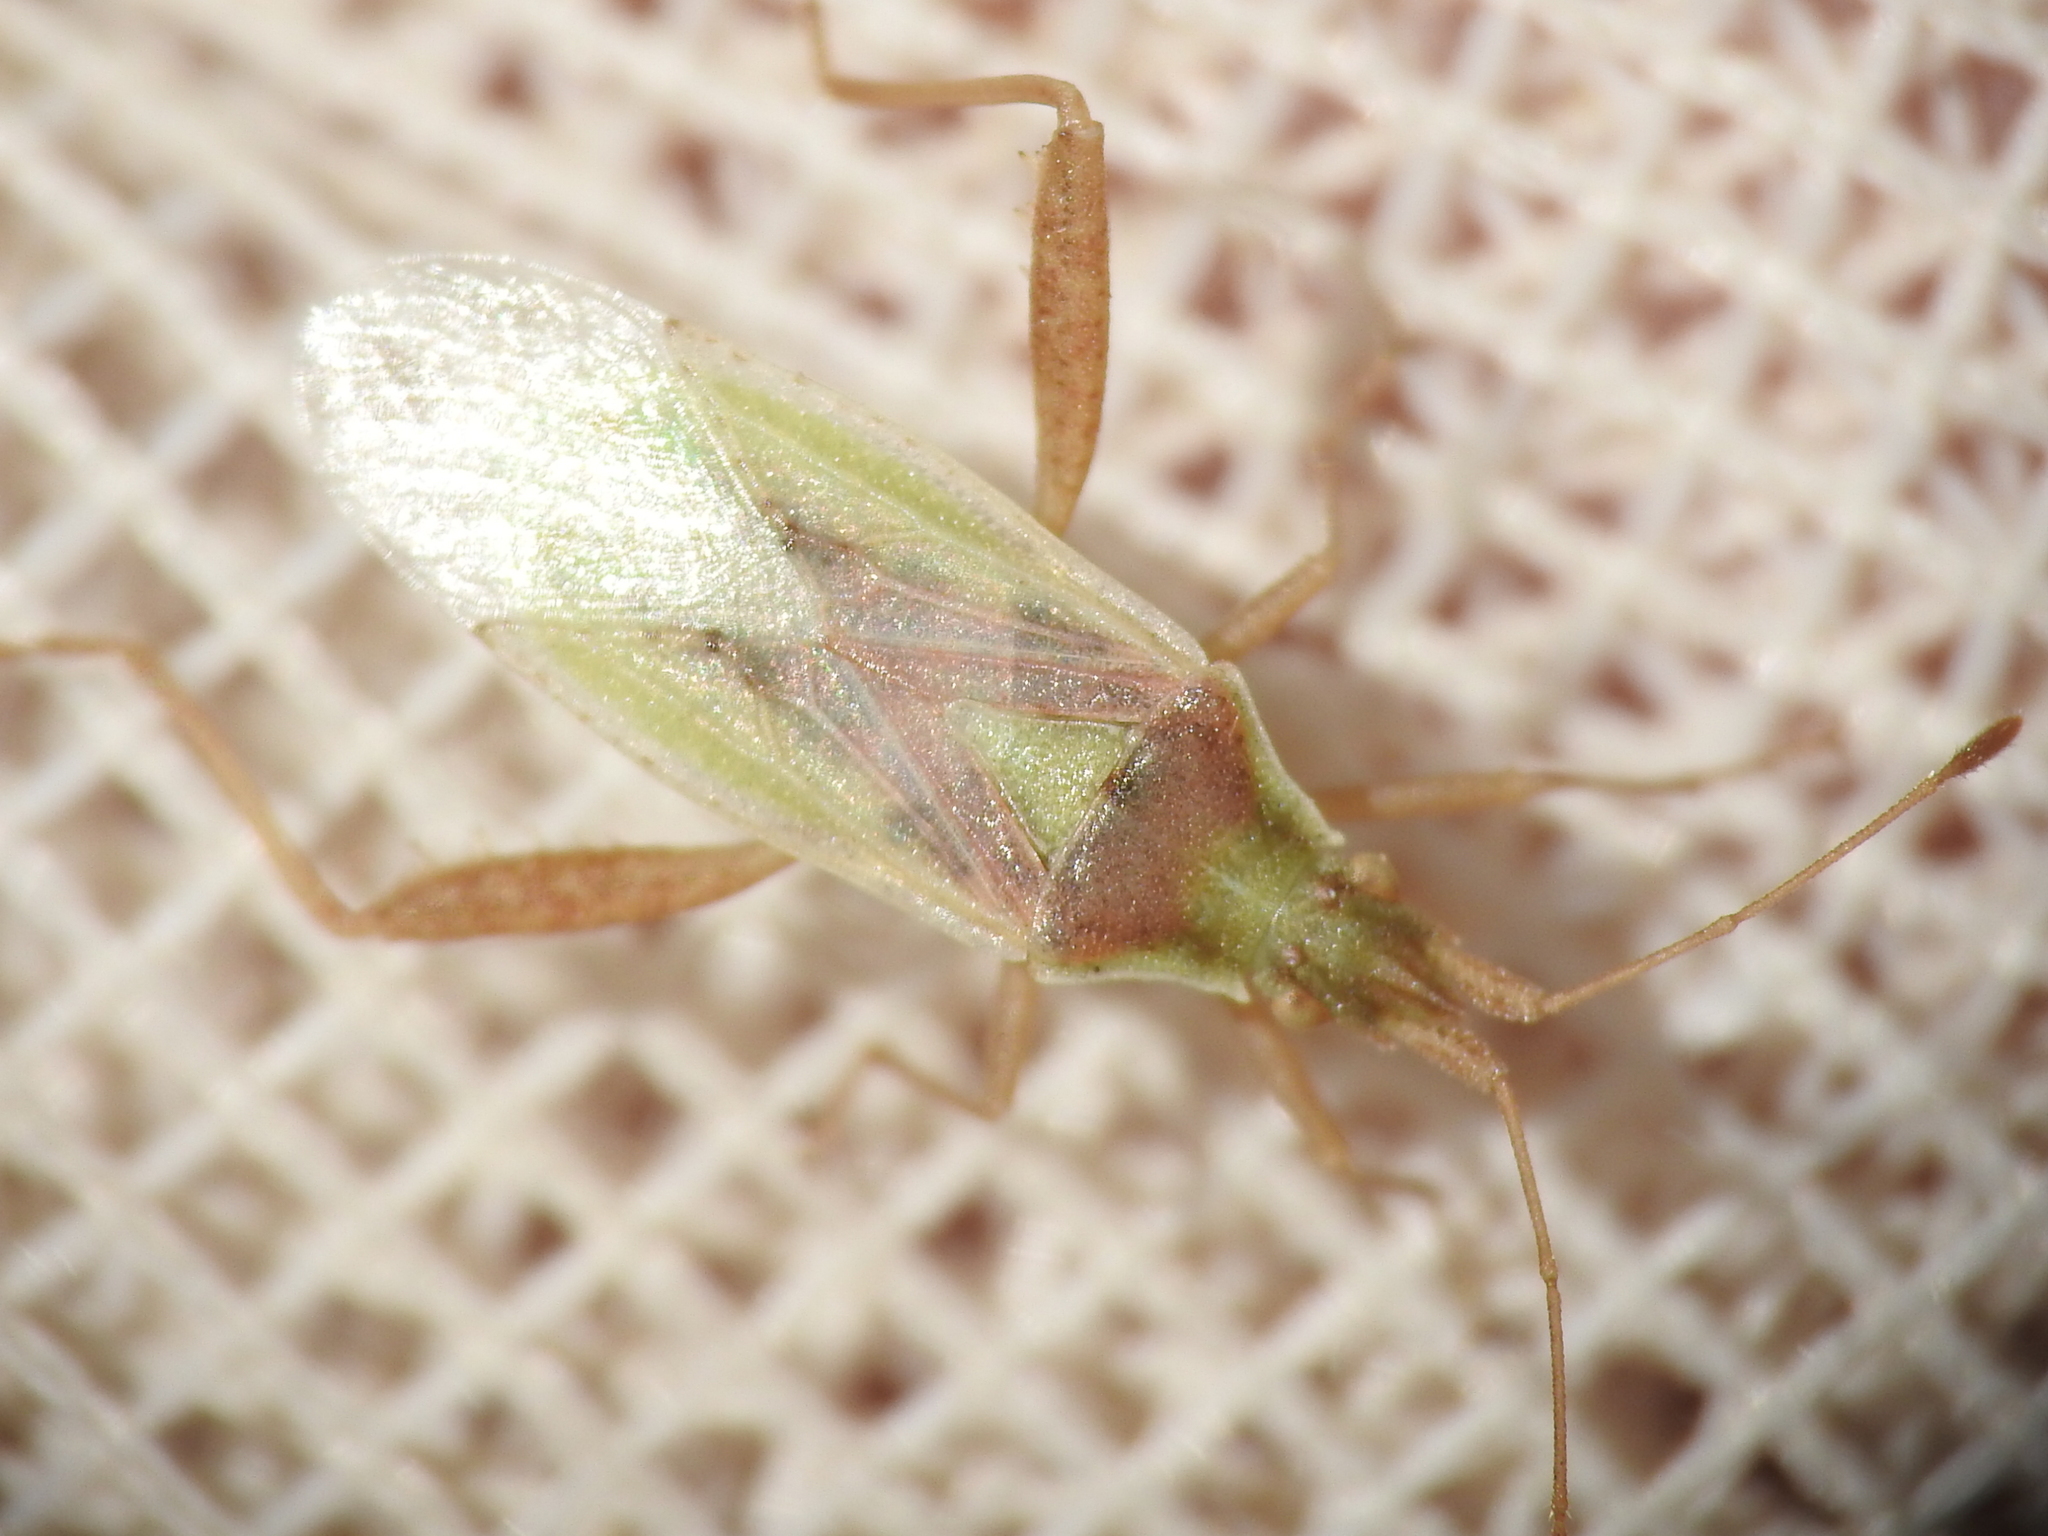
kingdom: Animalia
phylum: Arthropoda
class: Insecta
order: Hemiptera
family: Rhopalidae
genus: Harmostes
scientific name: Harmostes reflexulus
